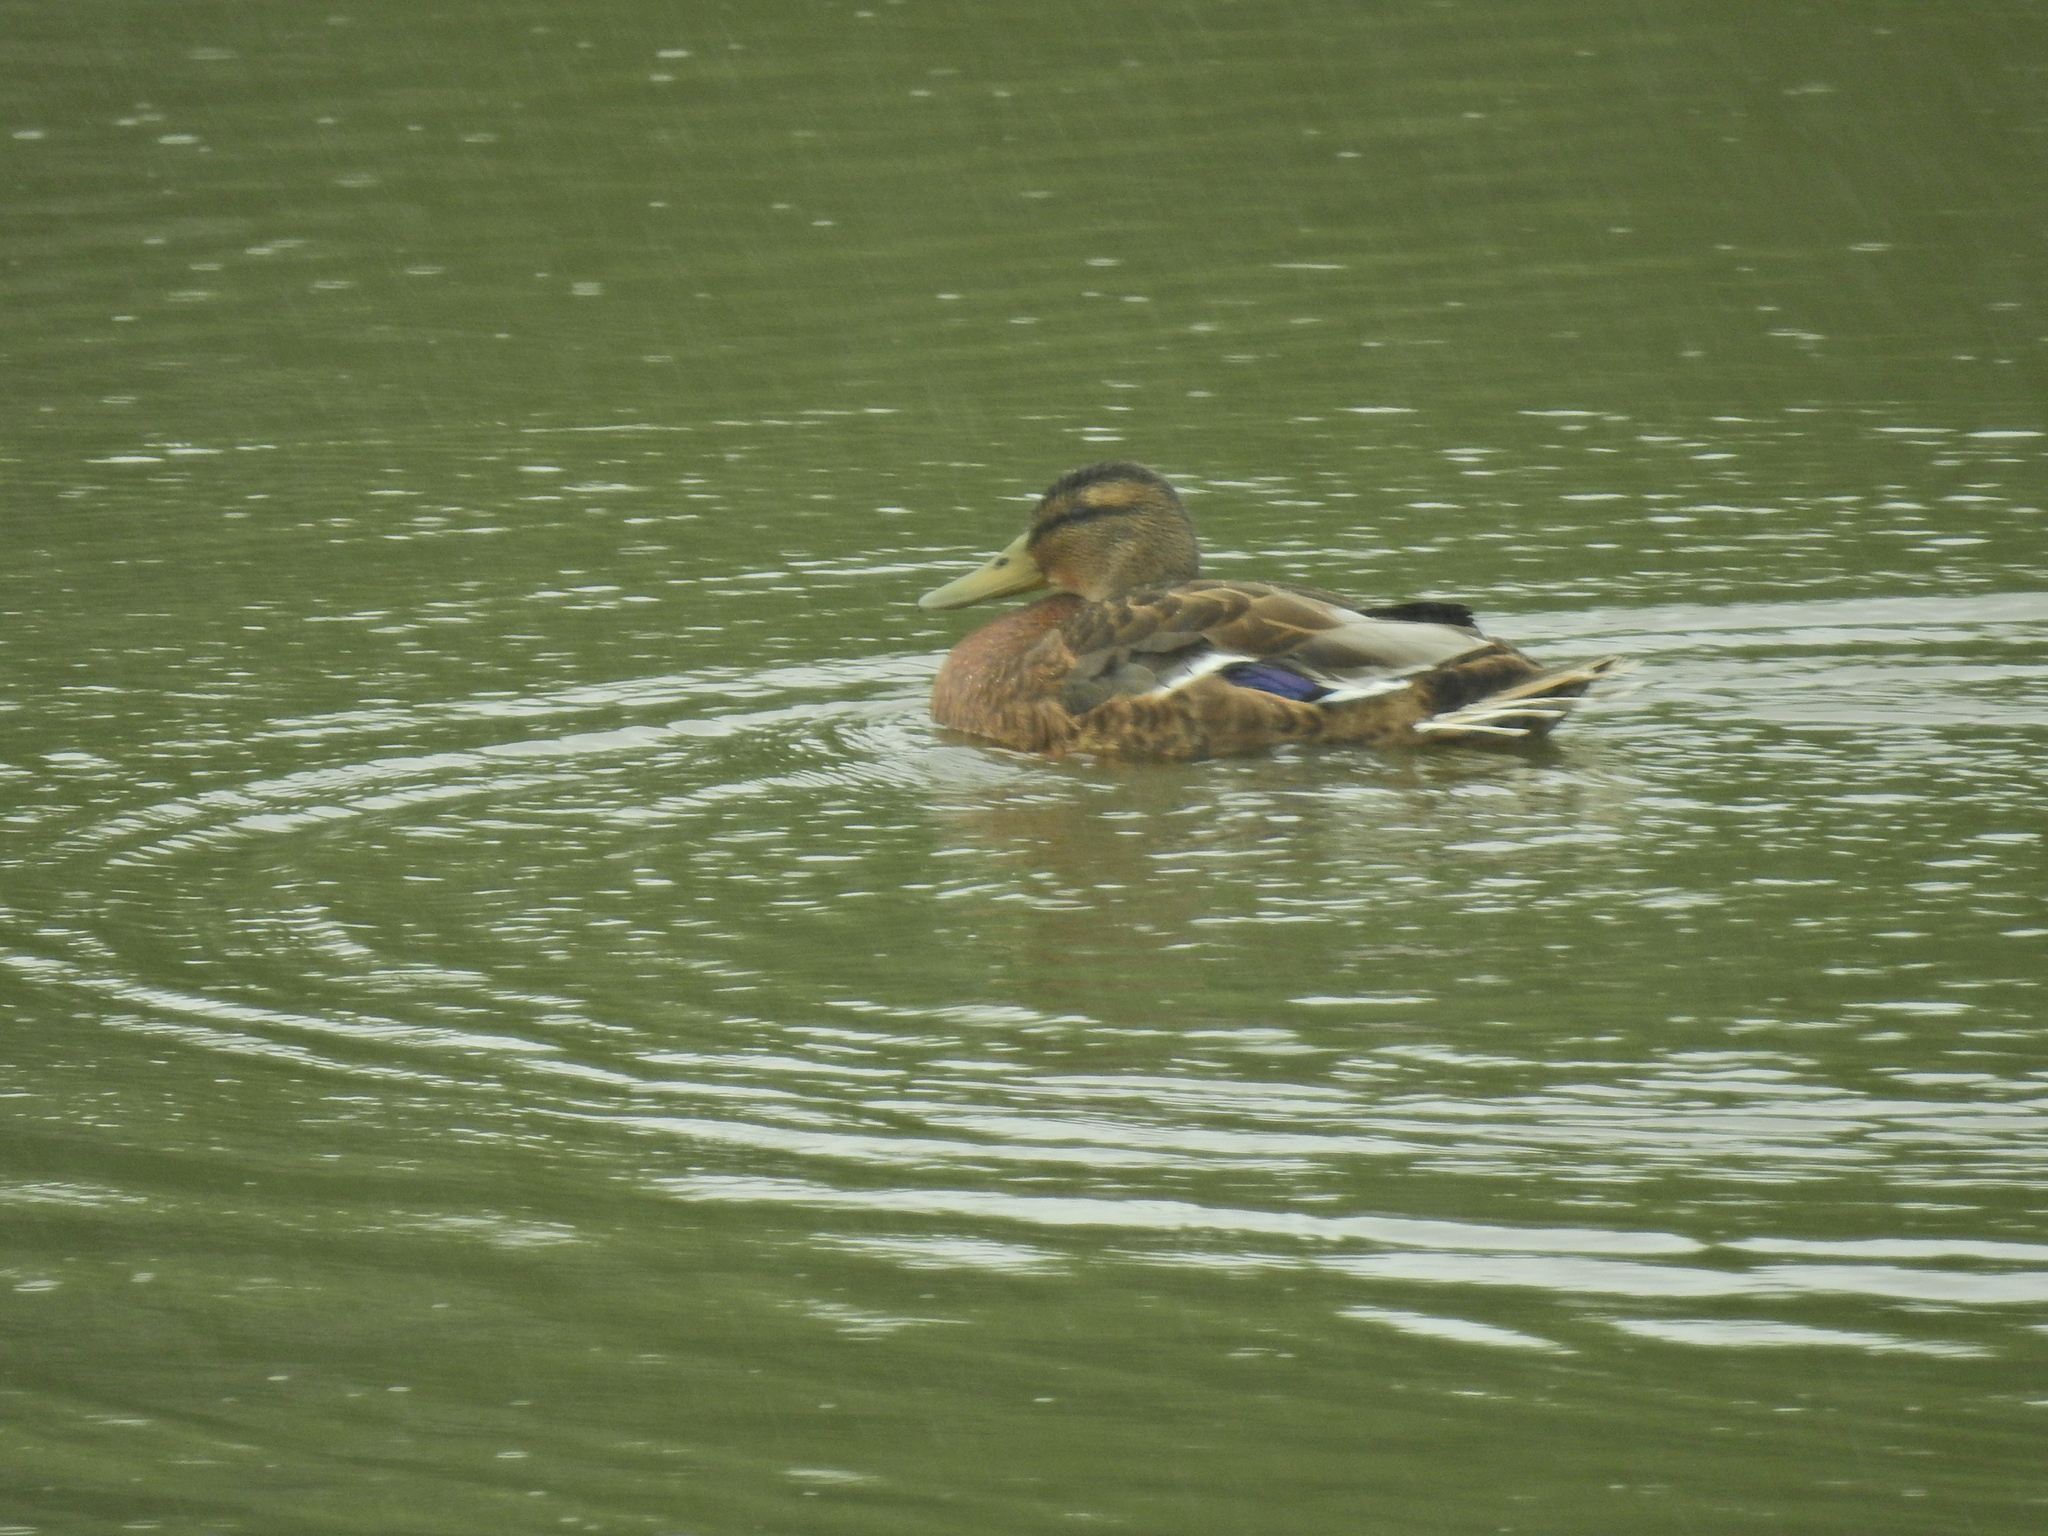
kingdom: Animalia
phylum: Chordata
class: Aves
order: Anseriformes
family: Anatidae
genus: Anas
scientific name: Anas platyrhynchos
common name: Mallard
